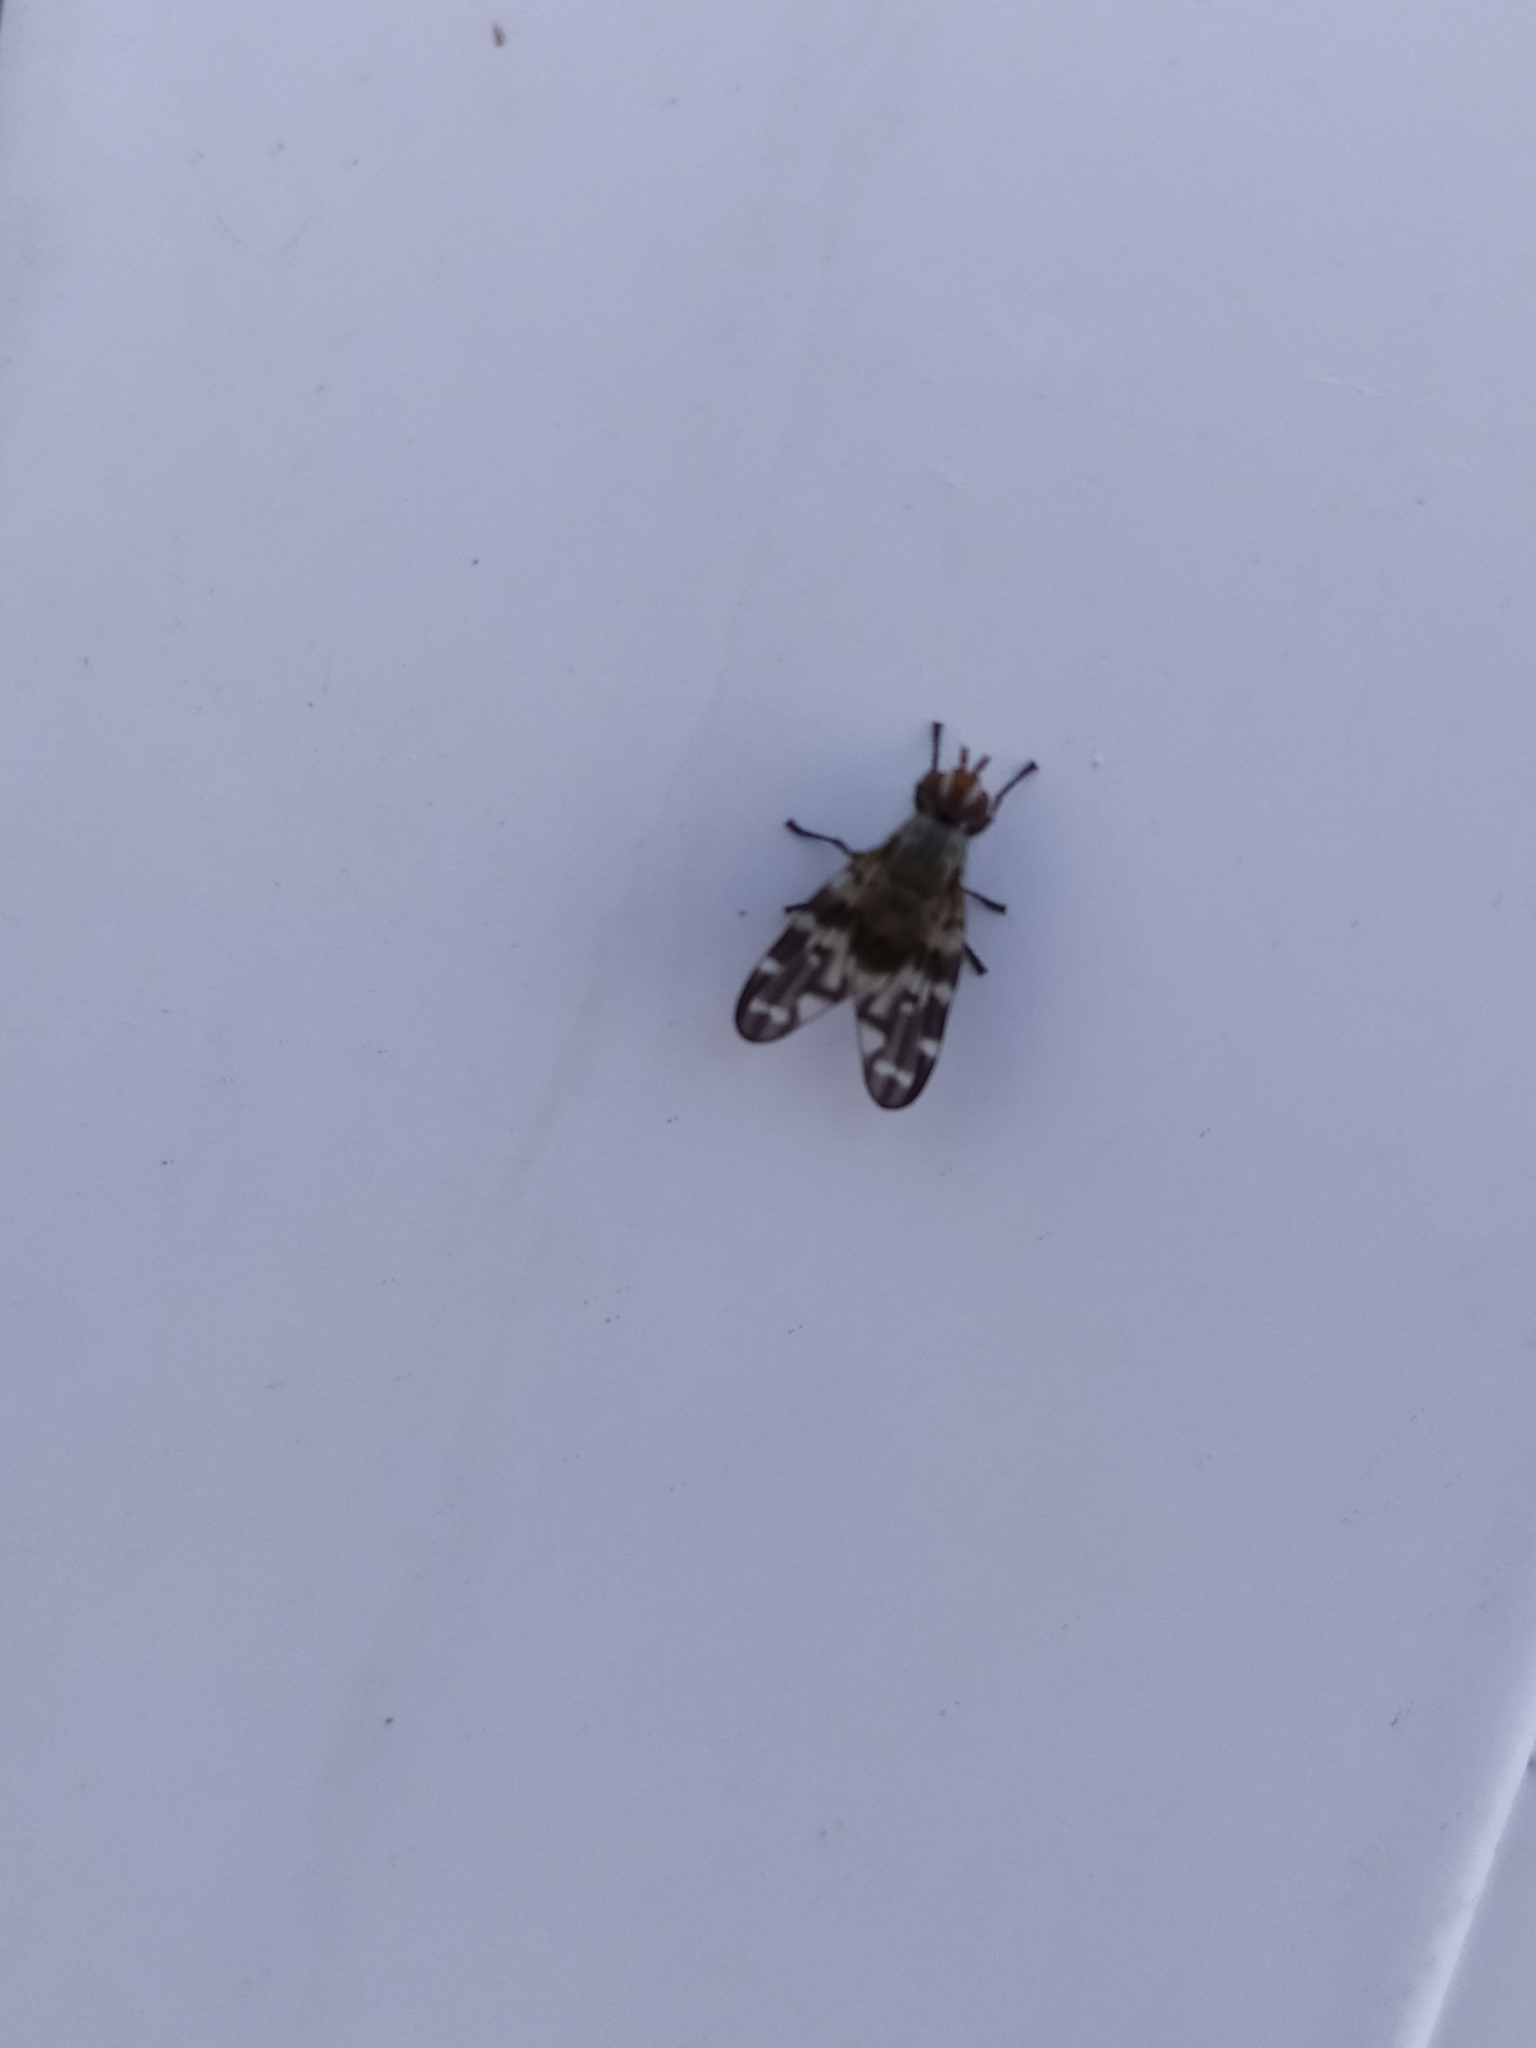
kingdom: Animalia
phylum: Arthropoda
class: Insecta
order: Diptera
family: Ulidiidae
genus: Otites
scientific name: Otites guttata
